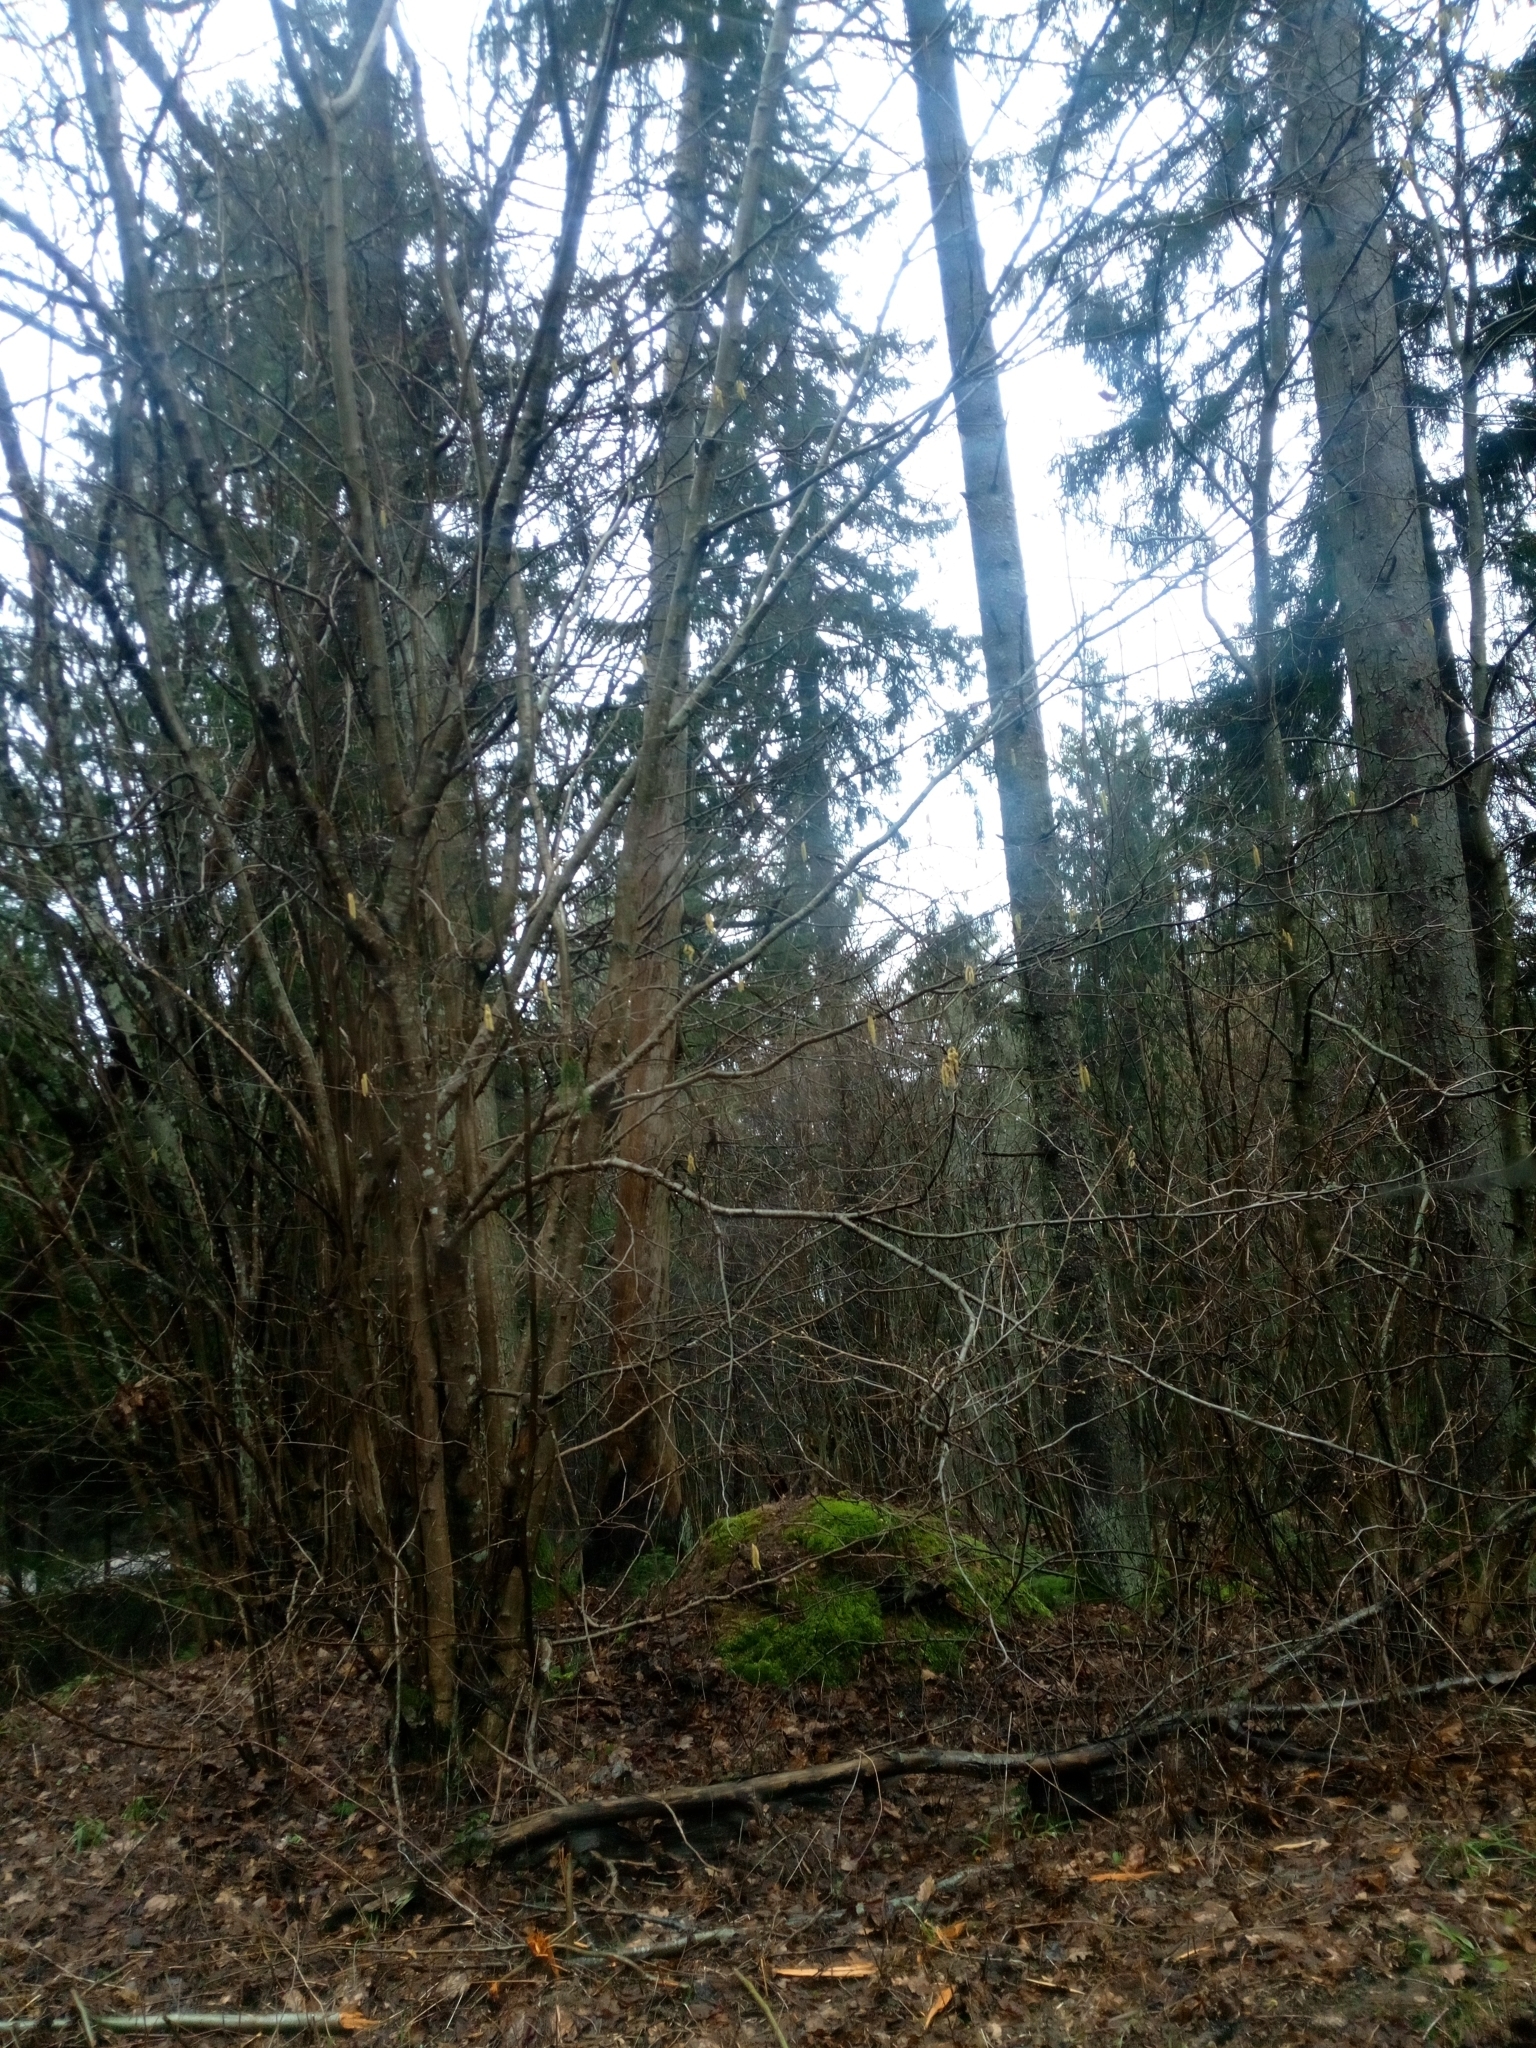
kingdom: Plantae
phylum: Tracheophyta
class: Magnoliopsida
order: Fagales
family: Betulaceae
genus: Corylus
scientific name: Corylus avellana
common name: European hazel
